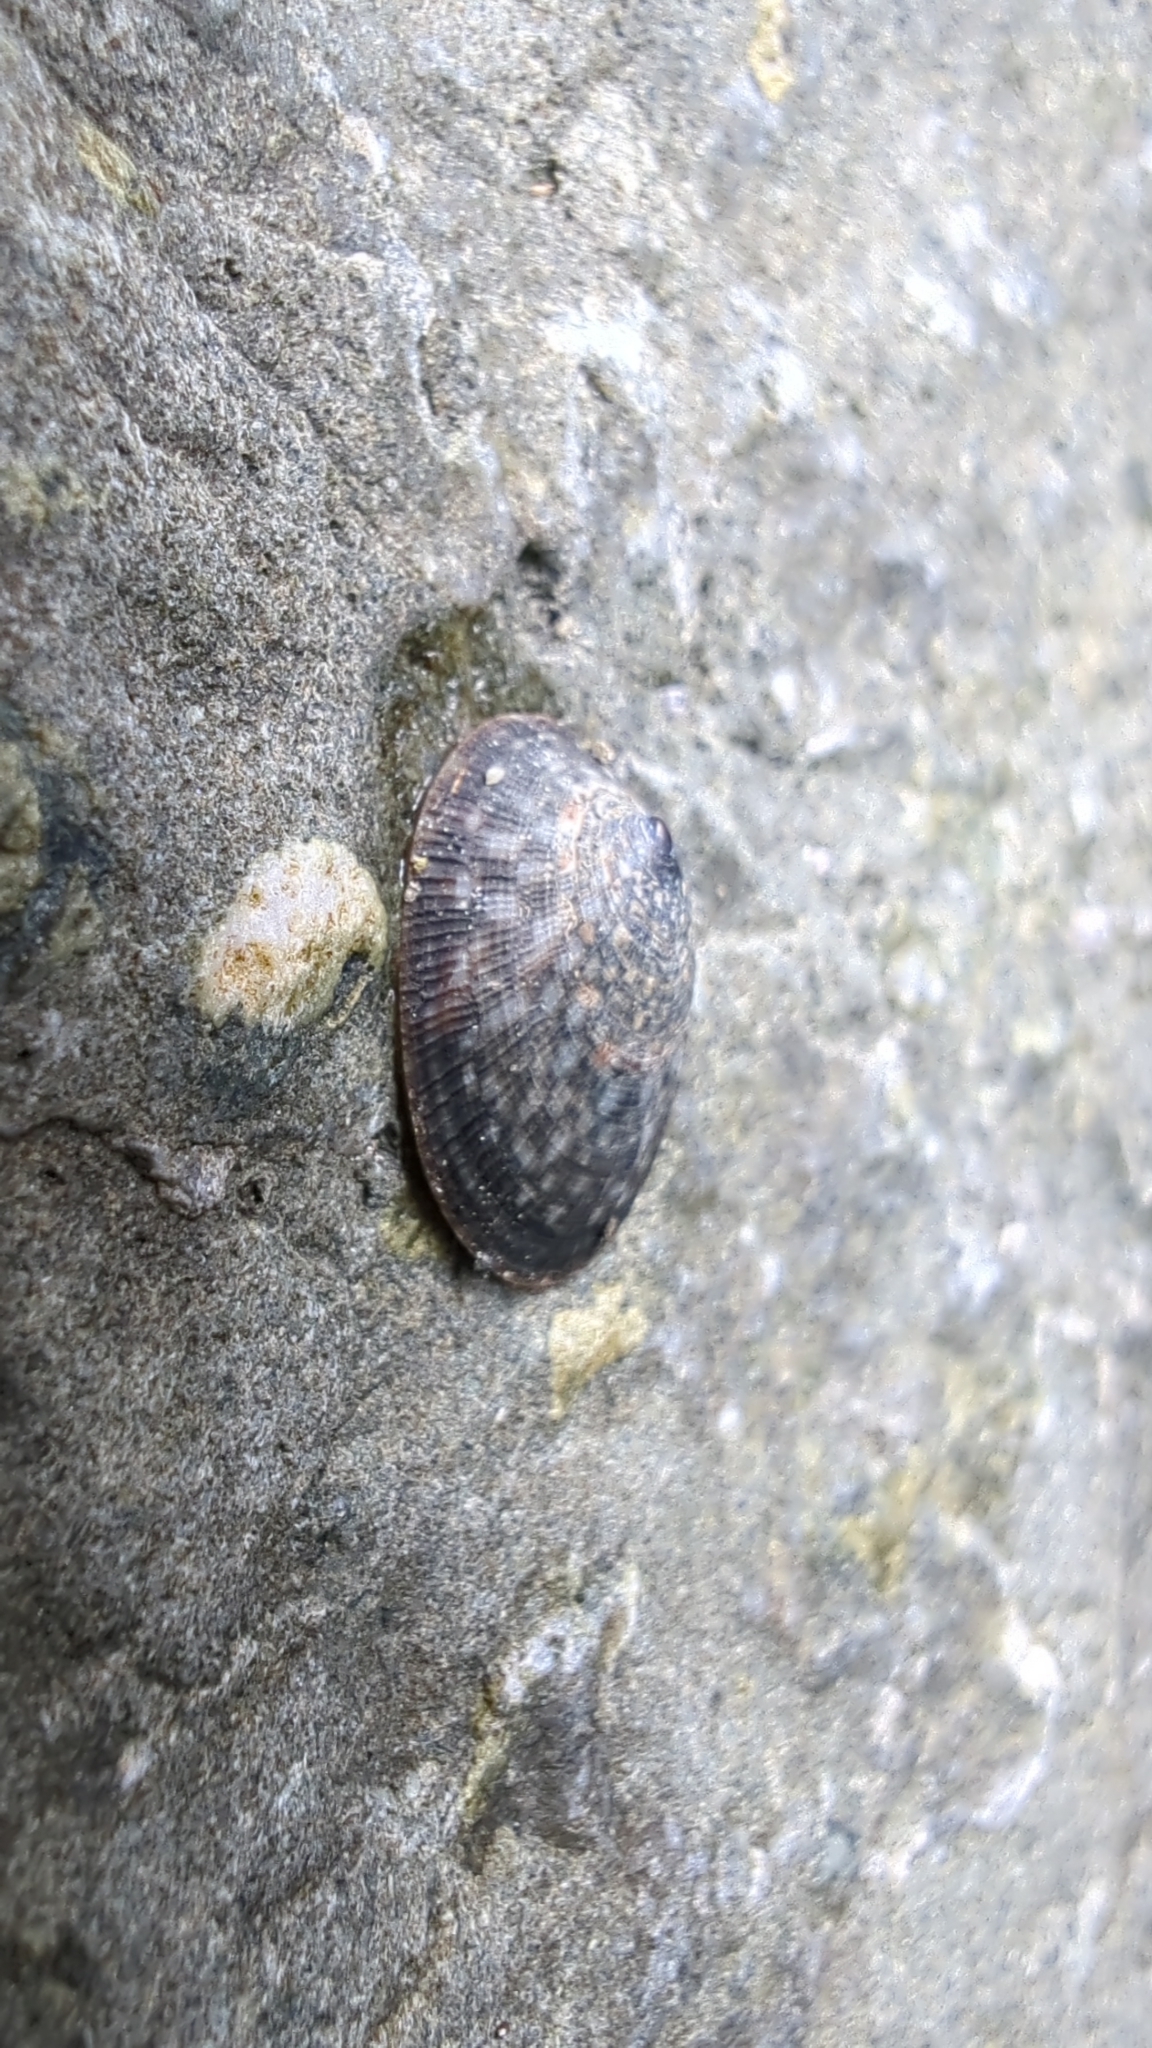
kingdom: Animalia
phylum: Mollusca
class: Gastropoda
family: Lottiidae
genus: Lottia
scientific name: Lottia persona
